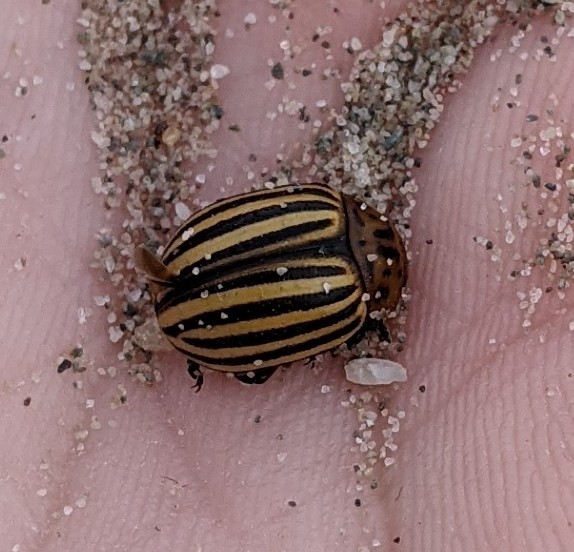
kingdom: Animalia
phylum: Arthropoda
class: Insecta
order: Coleoptera
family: Chrysomelidae
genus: Leptinotarsa
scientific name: Leptinotarsa decemlineata
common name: Colorado potato beetle
